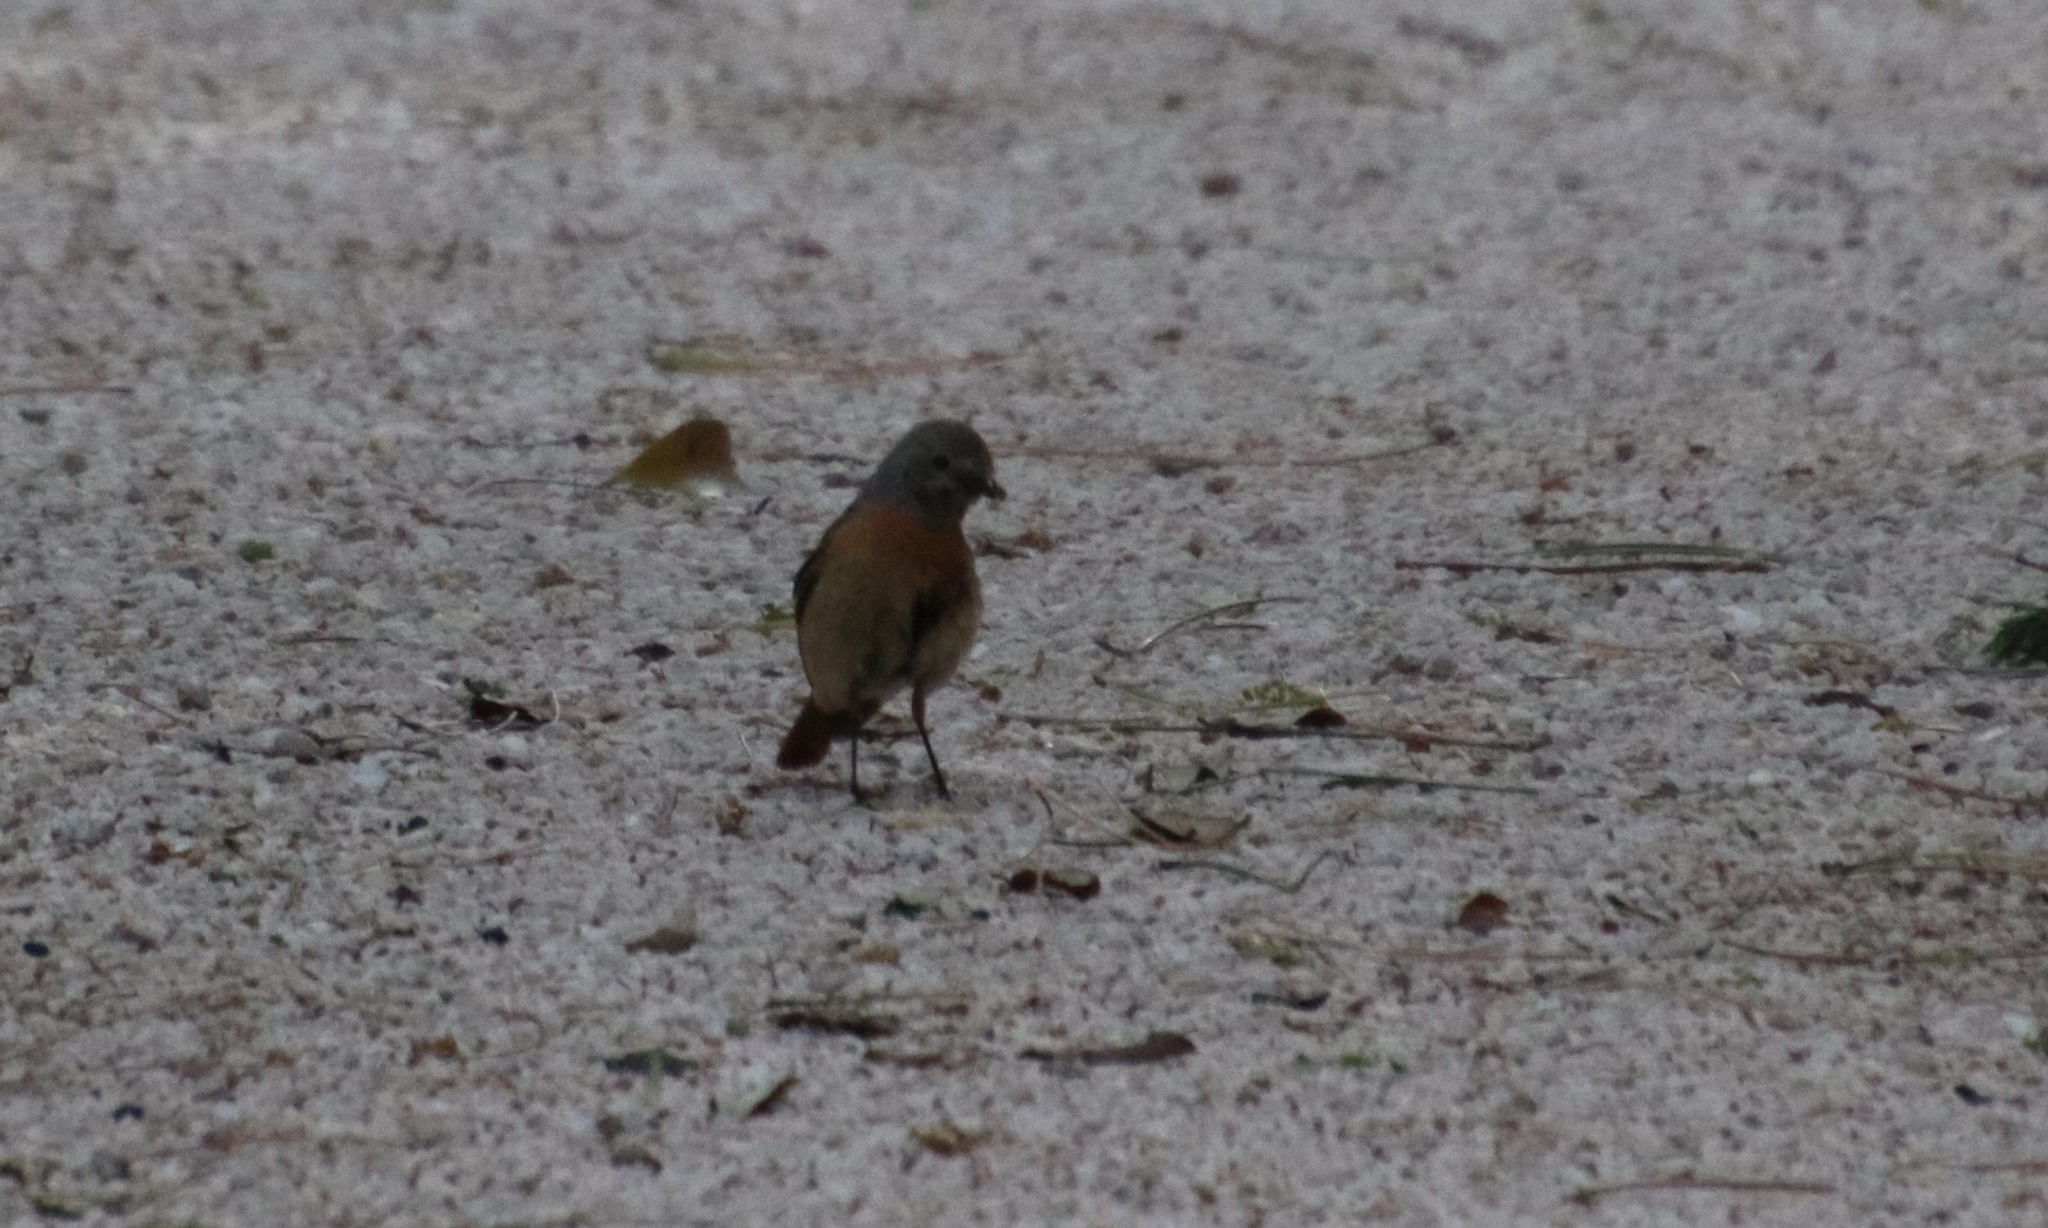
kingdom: Animalia
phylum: Chordata
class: Aves
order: Passeriformes
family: Muscicapidae
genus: Phoenicurus
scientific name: Phoenicurus phoenicurus
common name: Common redstart
